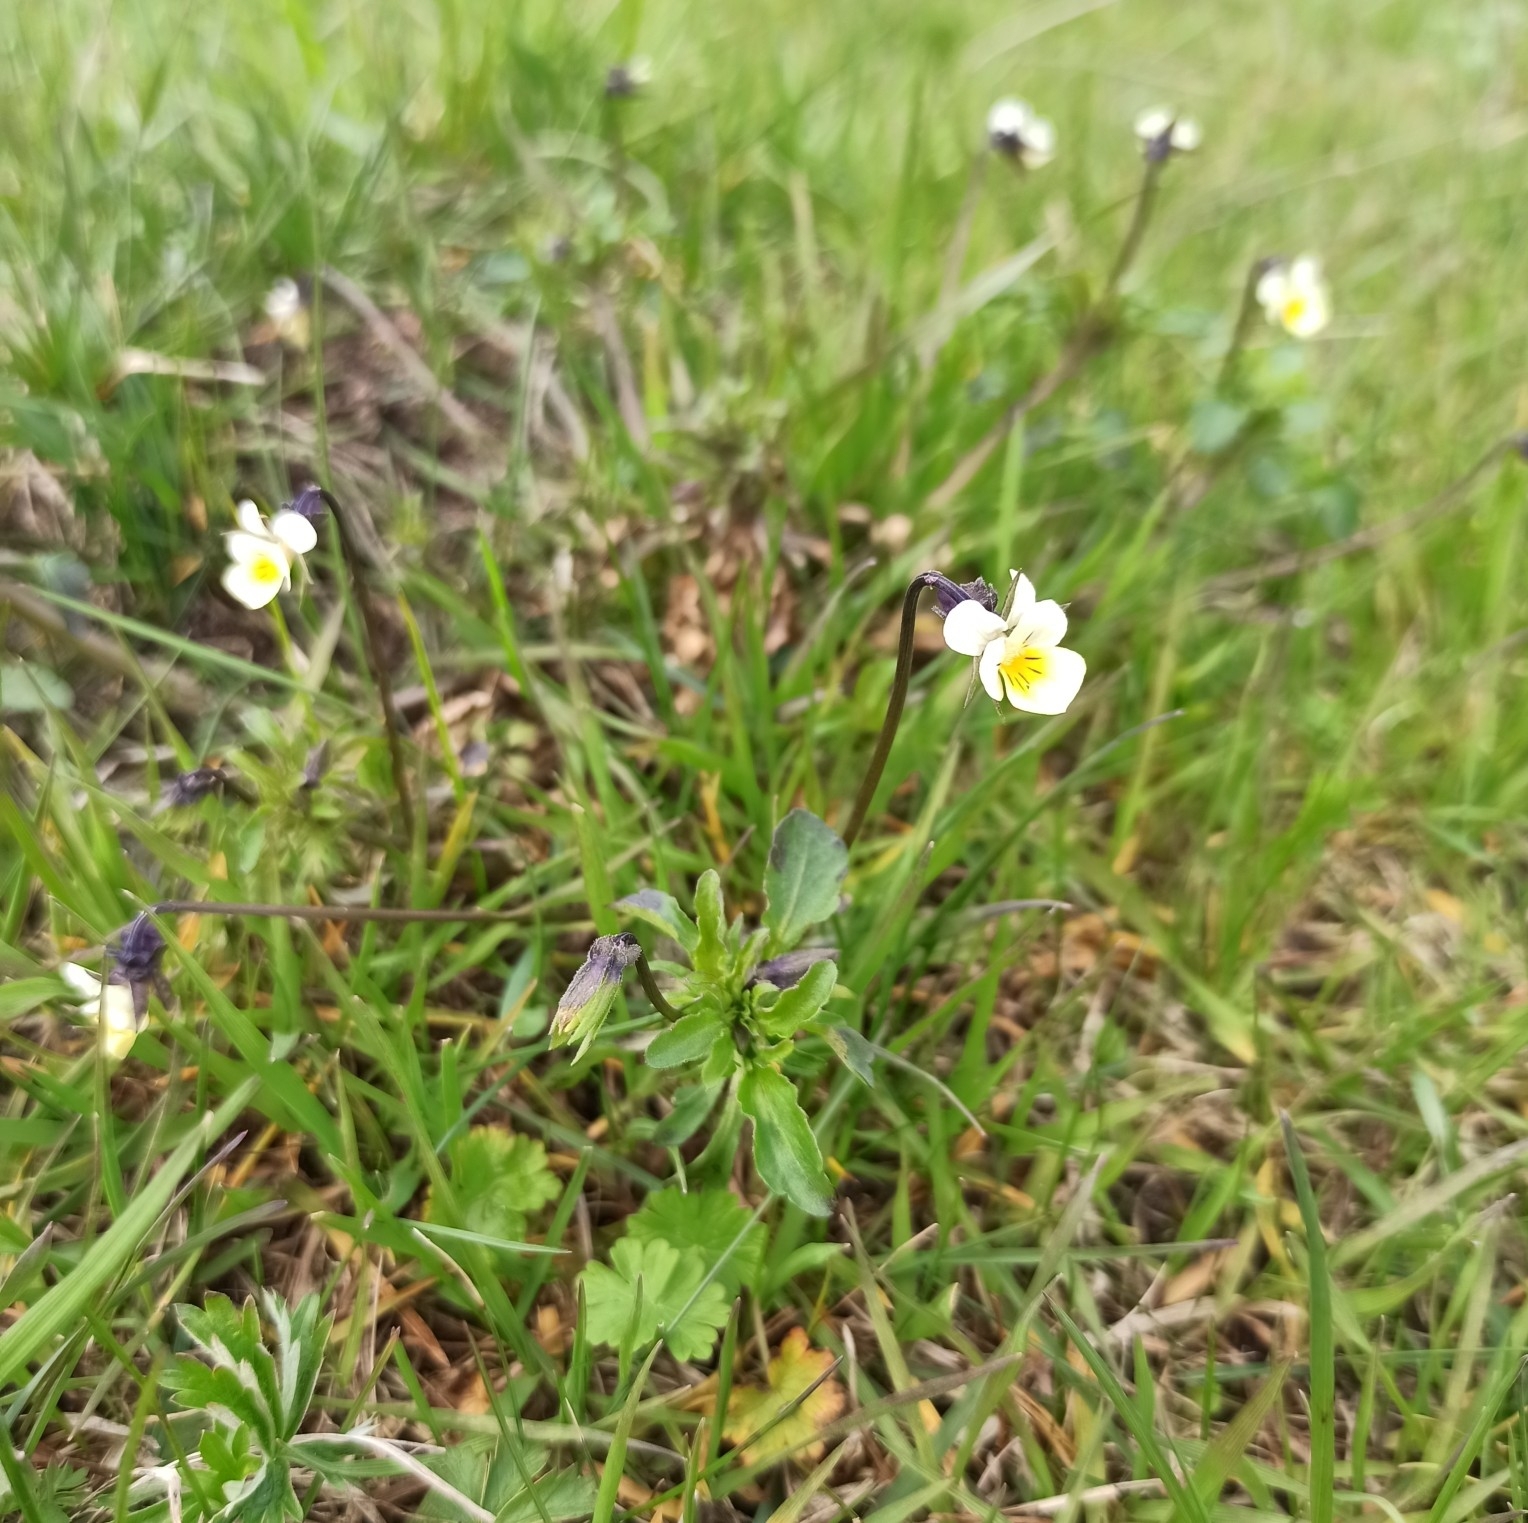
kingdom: Plantae
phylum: Tracheophyta
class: Magnoliopsida
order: Malpighiales
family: Violaceae
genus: Viola
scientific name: Viola arvensis
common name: Field pansy
